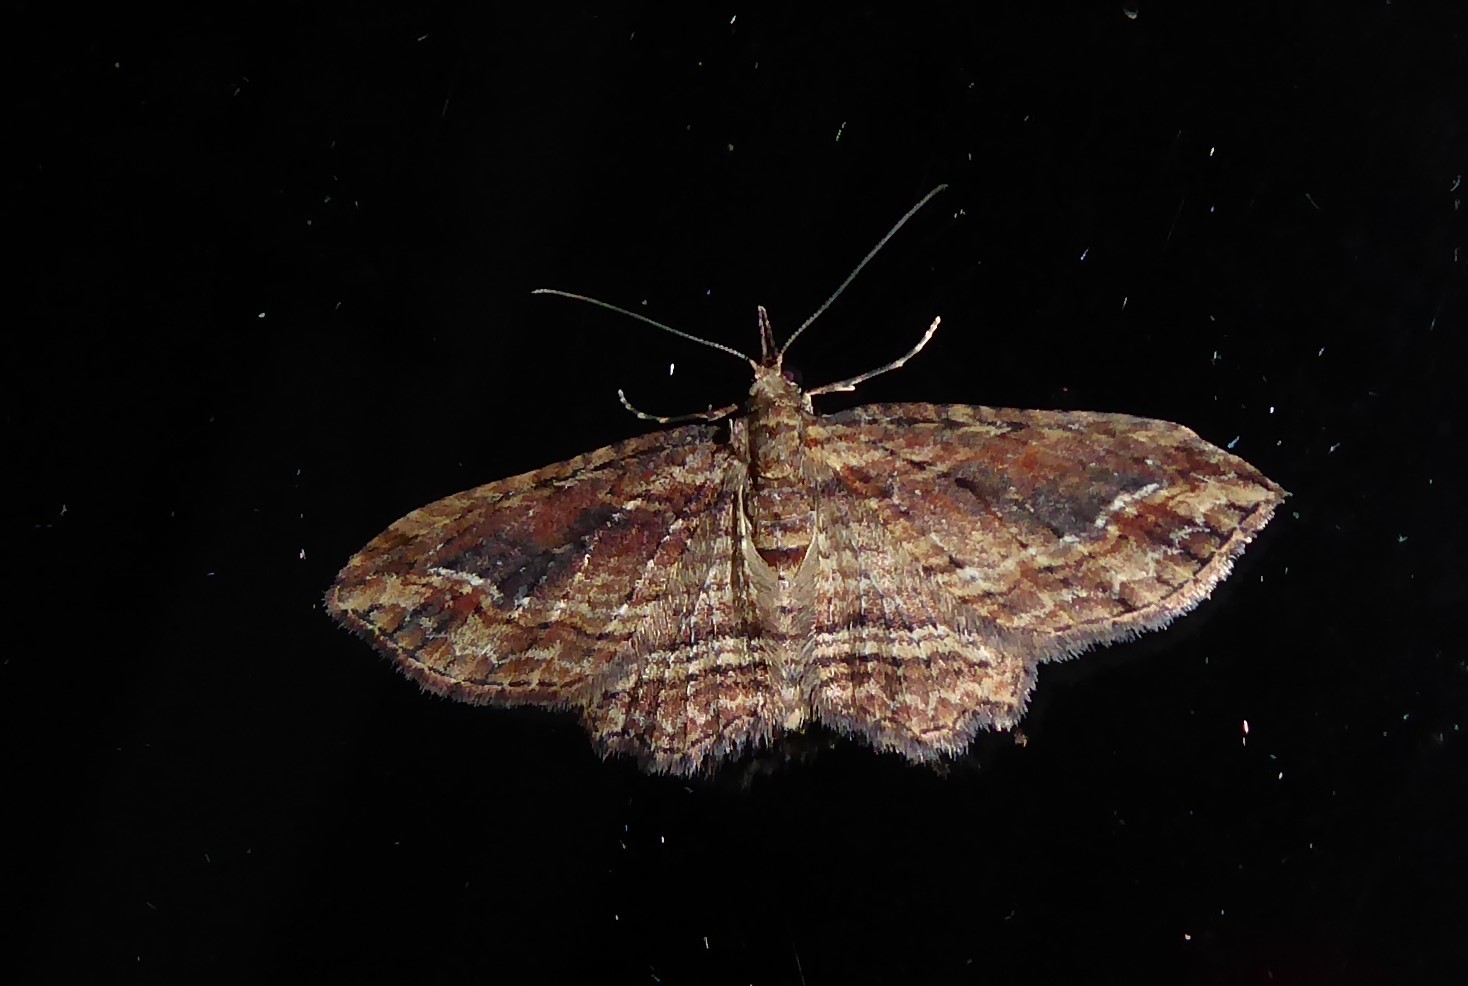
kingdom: Animalia
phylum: Arthropoda
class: Insecta
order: Lepidoptera
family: Geometridae
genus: Chloroclystis
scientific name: Chloroclystis filata
